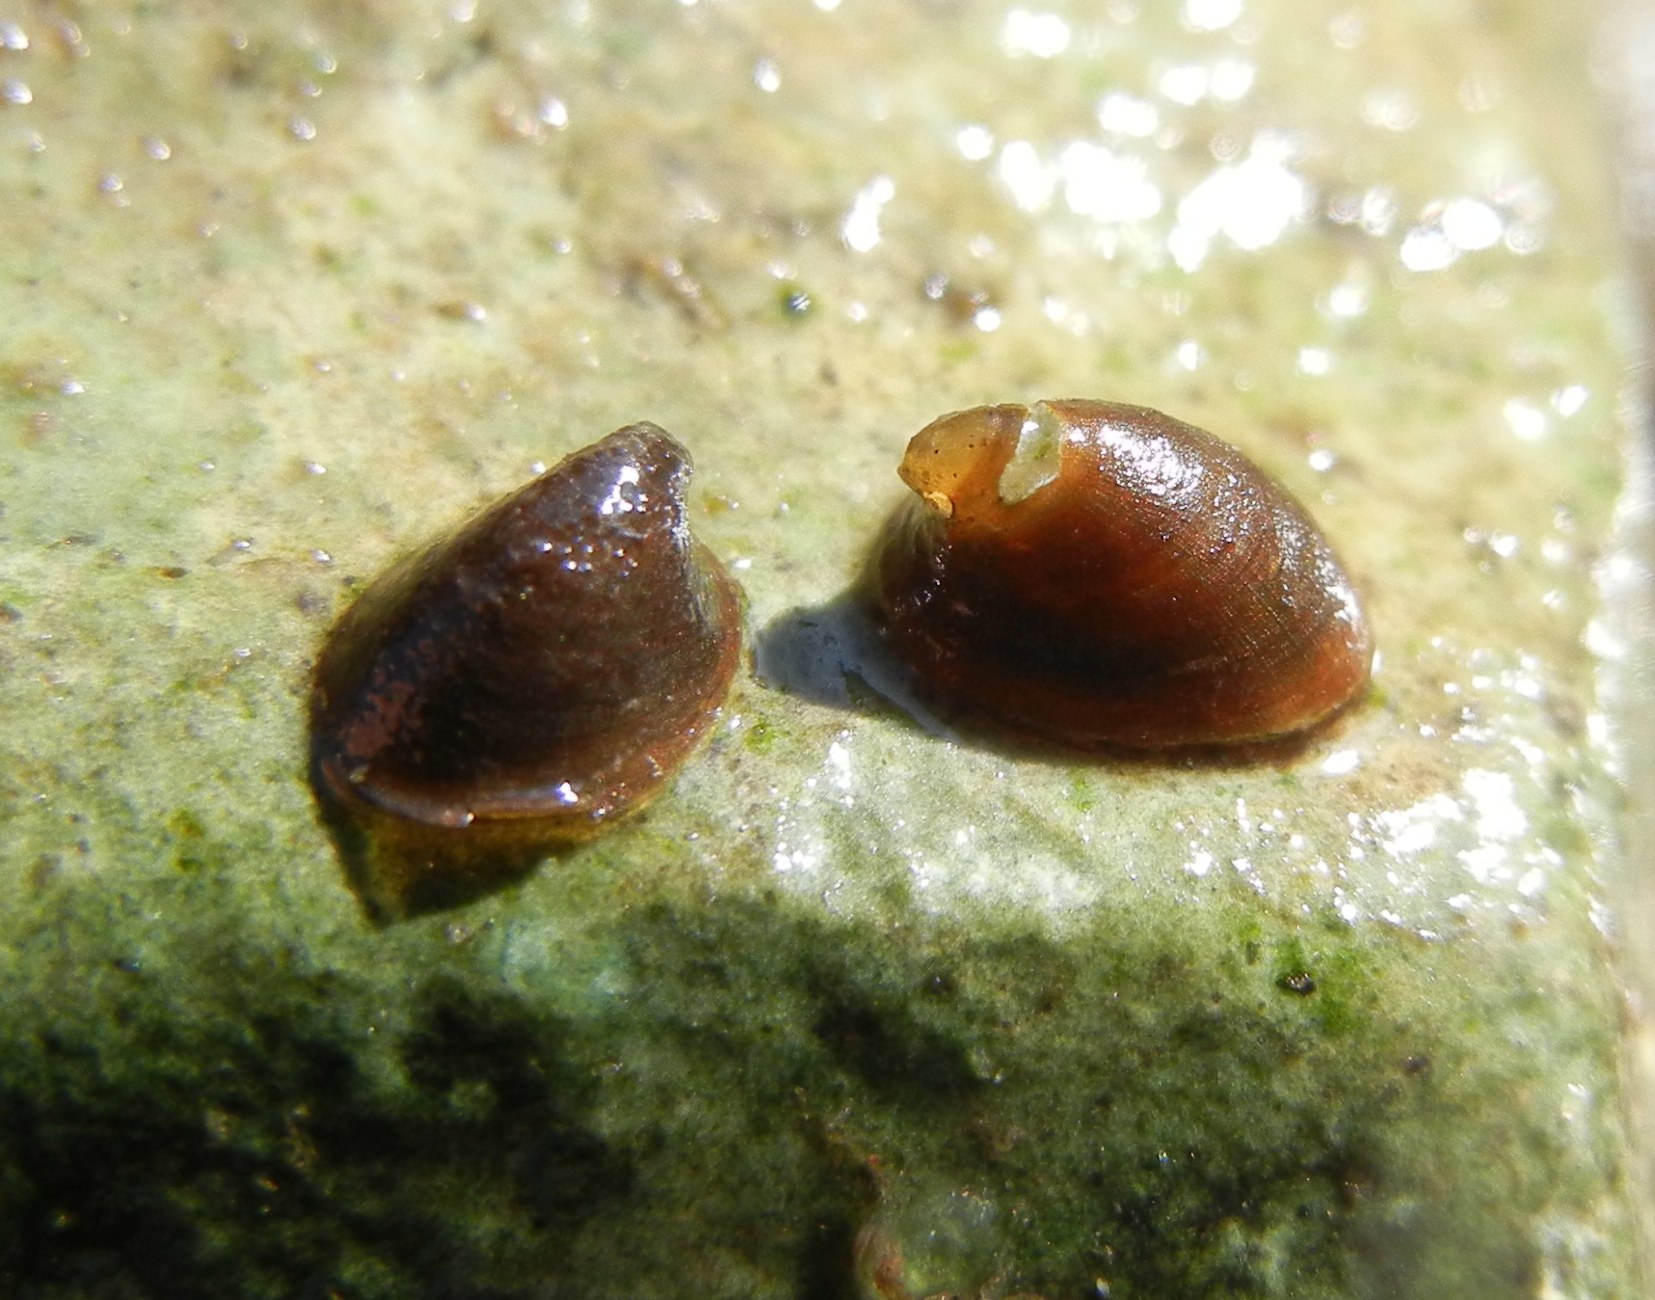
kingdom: Animalia
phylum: Mollusca
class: Gastropoda
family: Planorbidae
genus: Ancylus
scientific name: Ancylus fluviatilis
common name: River limpet
